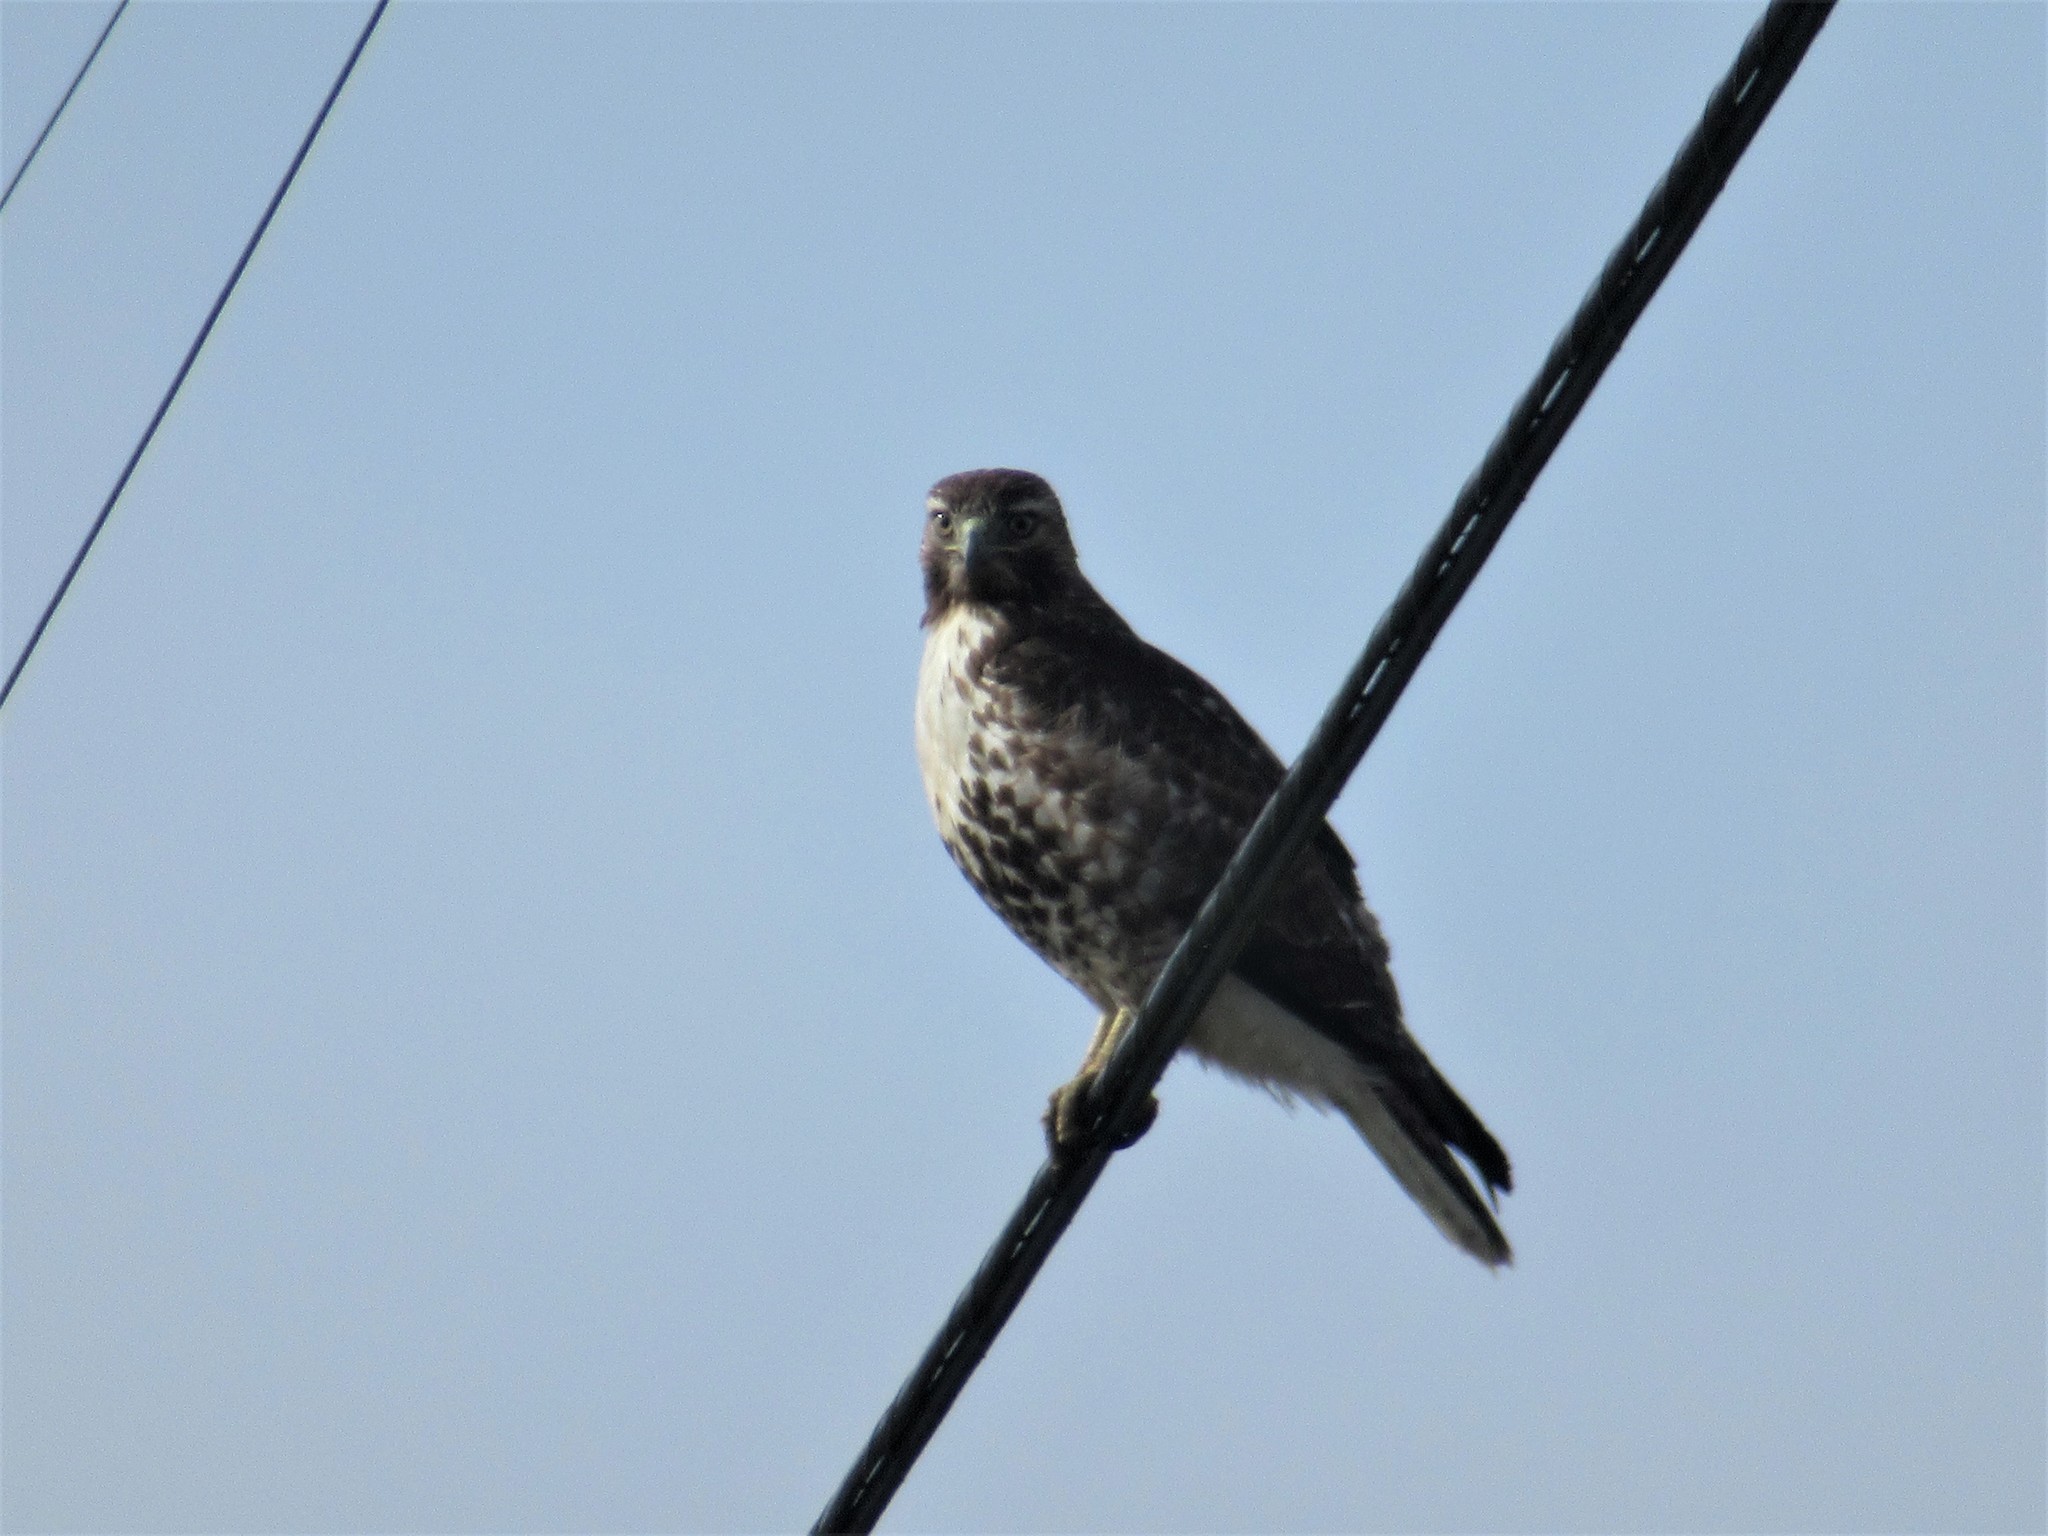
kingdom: Animalia
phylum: Chordata
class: Aves
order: Accipitriformes
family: Accipitridae
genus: Buteo
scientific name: Buteo jamaicensis
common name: Red-tailed hawk
